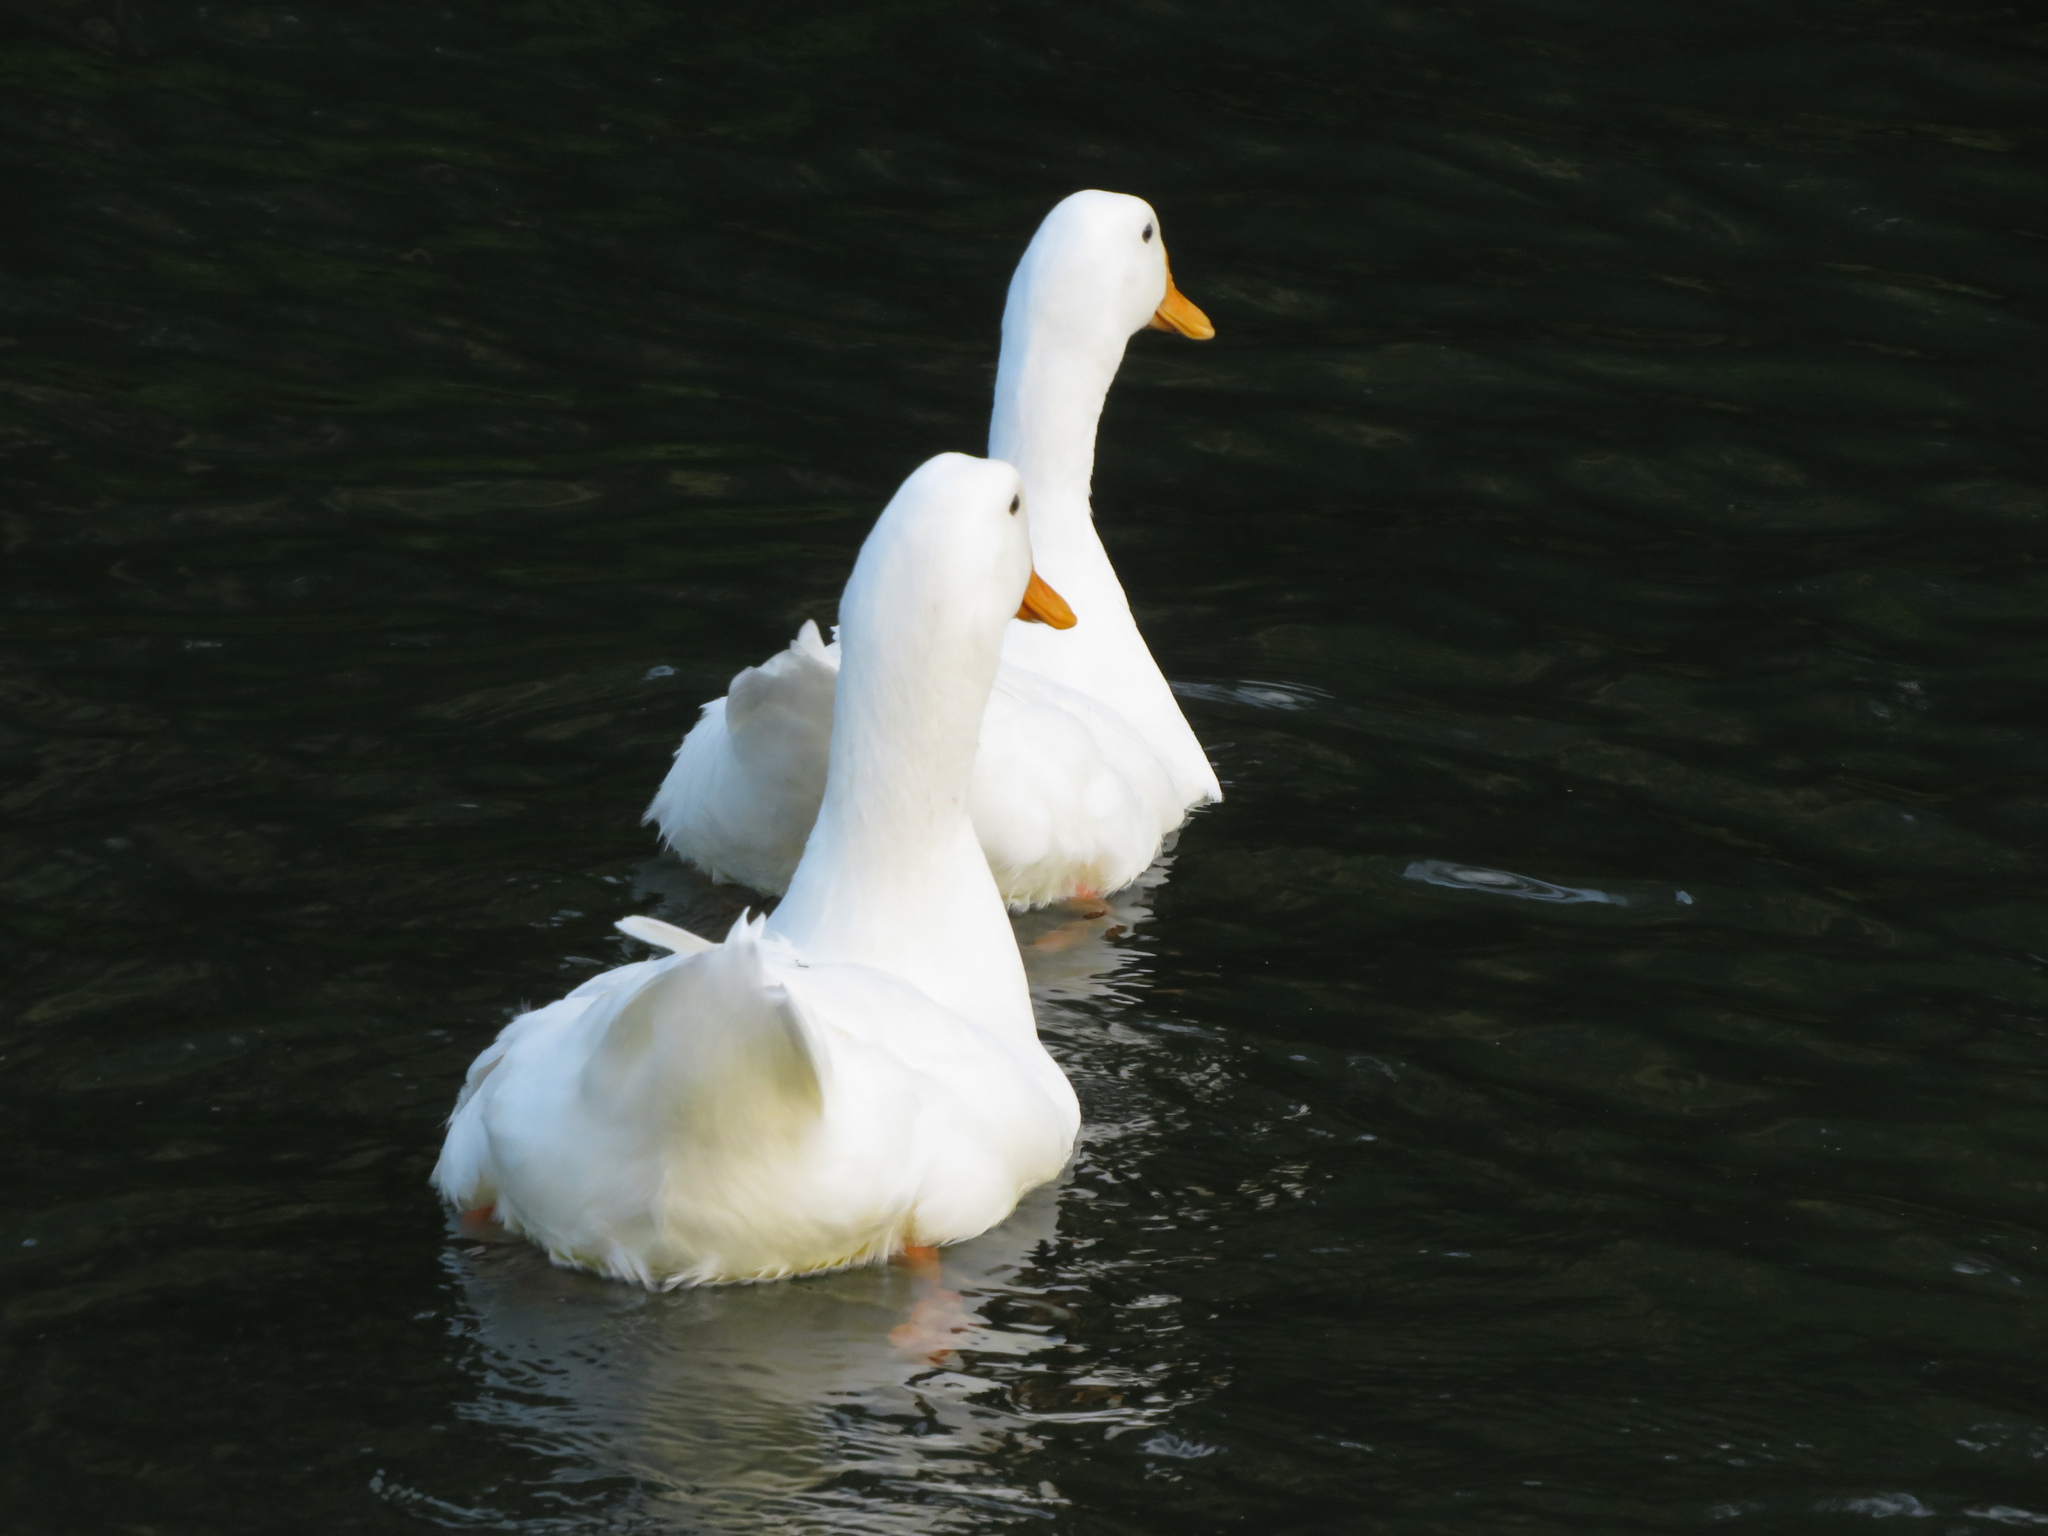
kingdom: Animalia
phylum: Chordata
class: Aves
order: Anseriformes
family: Anatidae
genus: Anas
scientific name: Anas platyrhynchos
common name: Mallard
